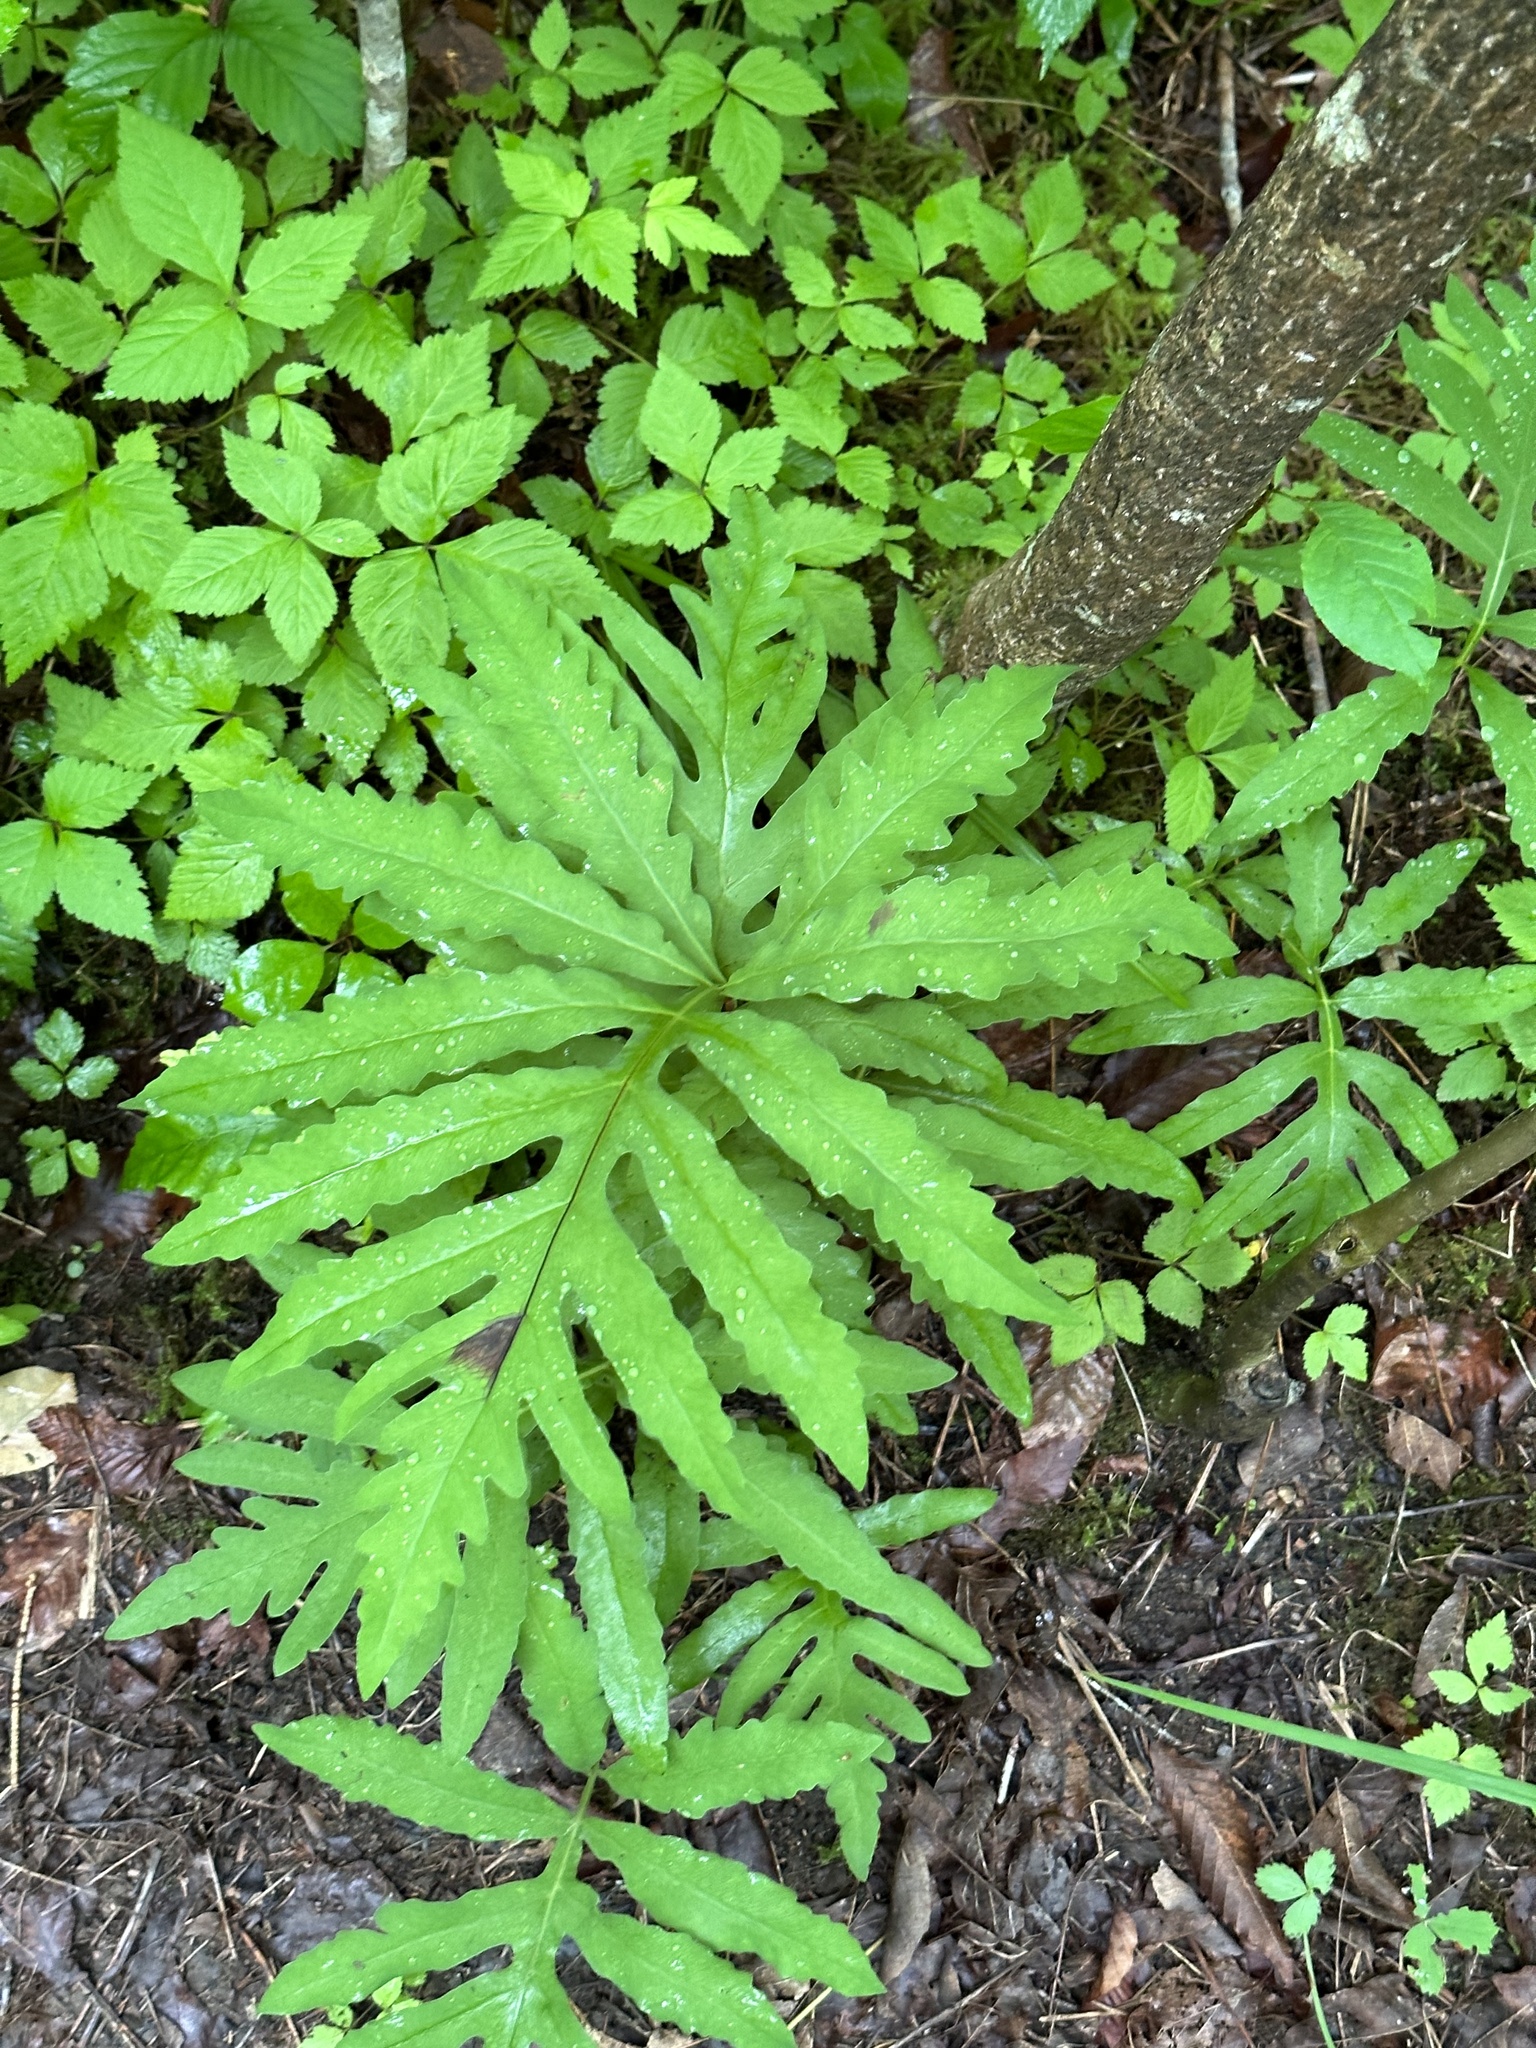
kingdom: Plantae
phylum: Tracheophyta
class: Polypodiopsida
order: Polypodiales
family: Onocleaceae
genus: Onoclea
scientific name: Onoclea sensibilis
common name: Sensitive fern
